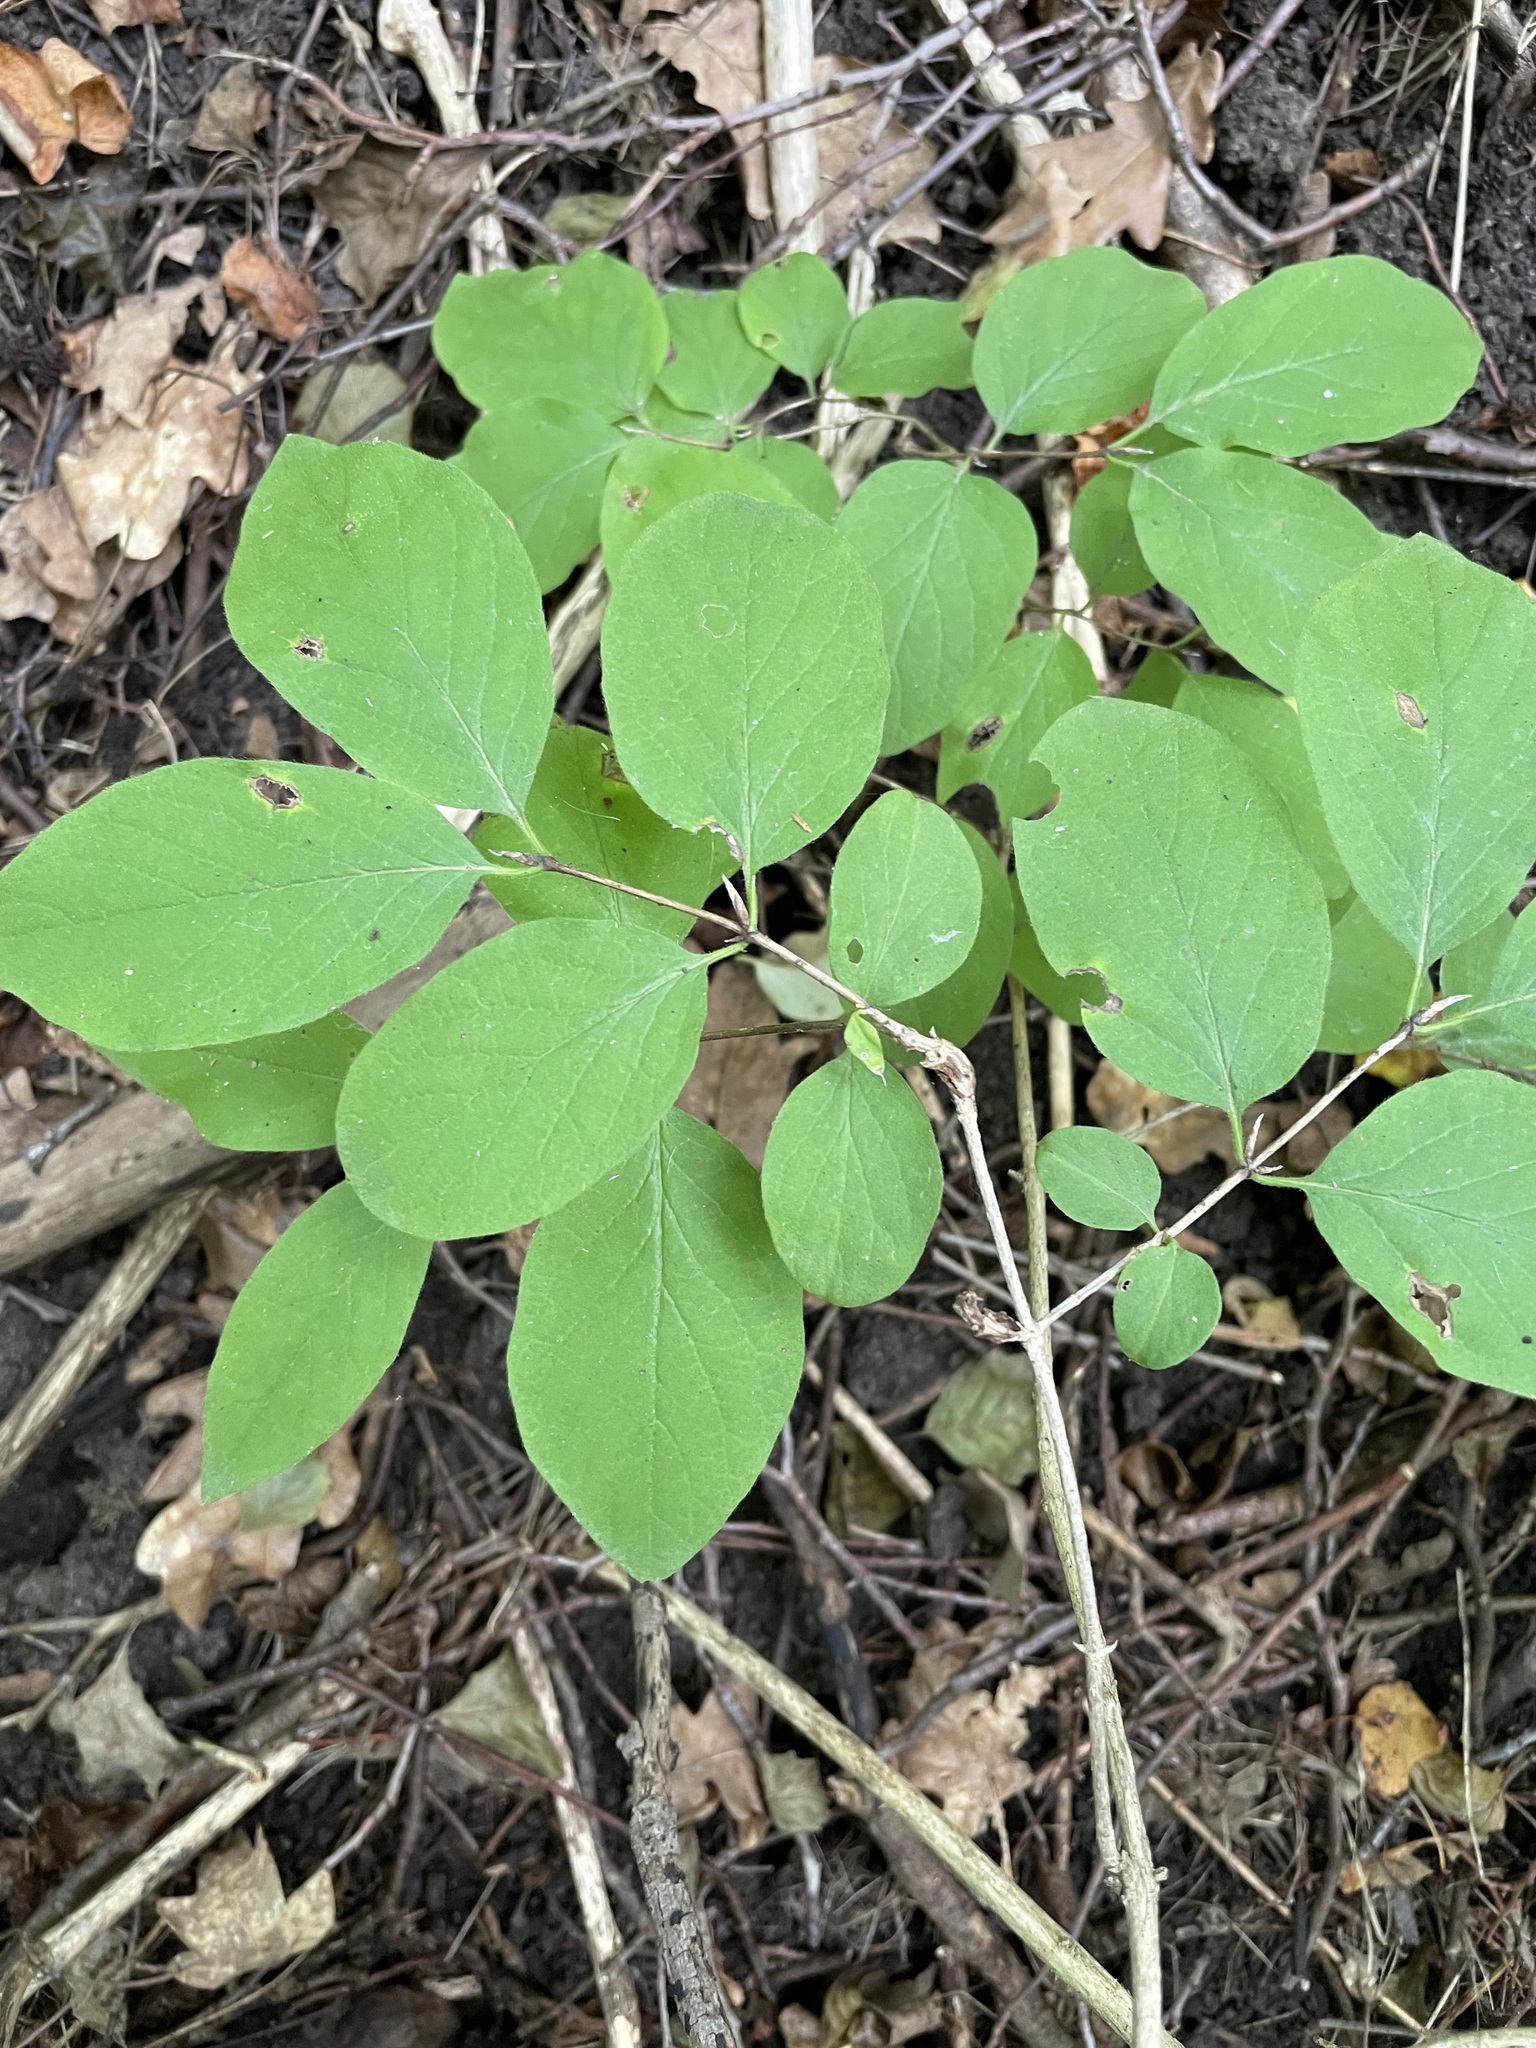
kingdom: Plantae
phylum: Tracheophyta
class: Magnoliopsida
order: Dipsacales
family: Caprifoliaceae
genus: Lonicera
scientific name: Lonicera xylosteum
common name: Fly honeysuckle
